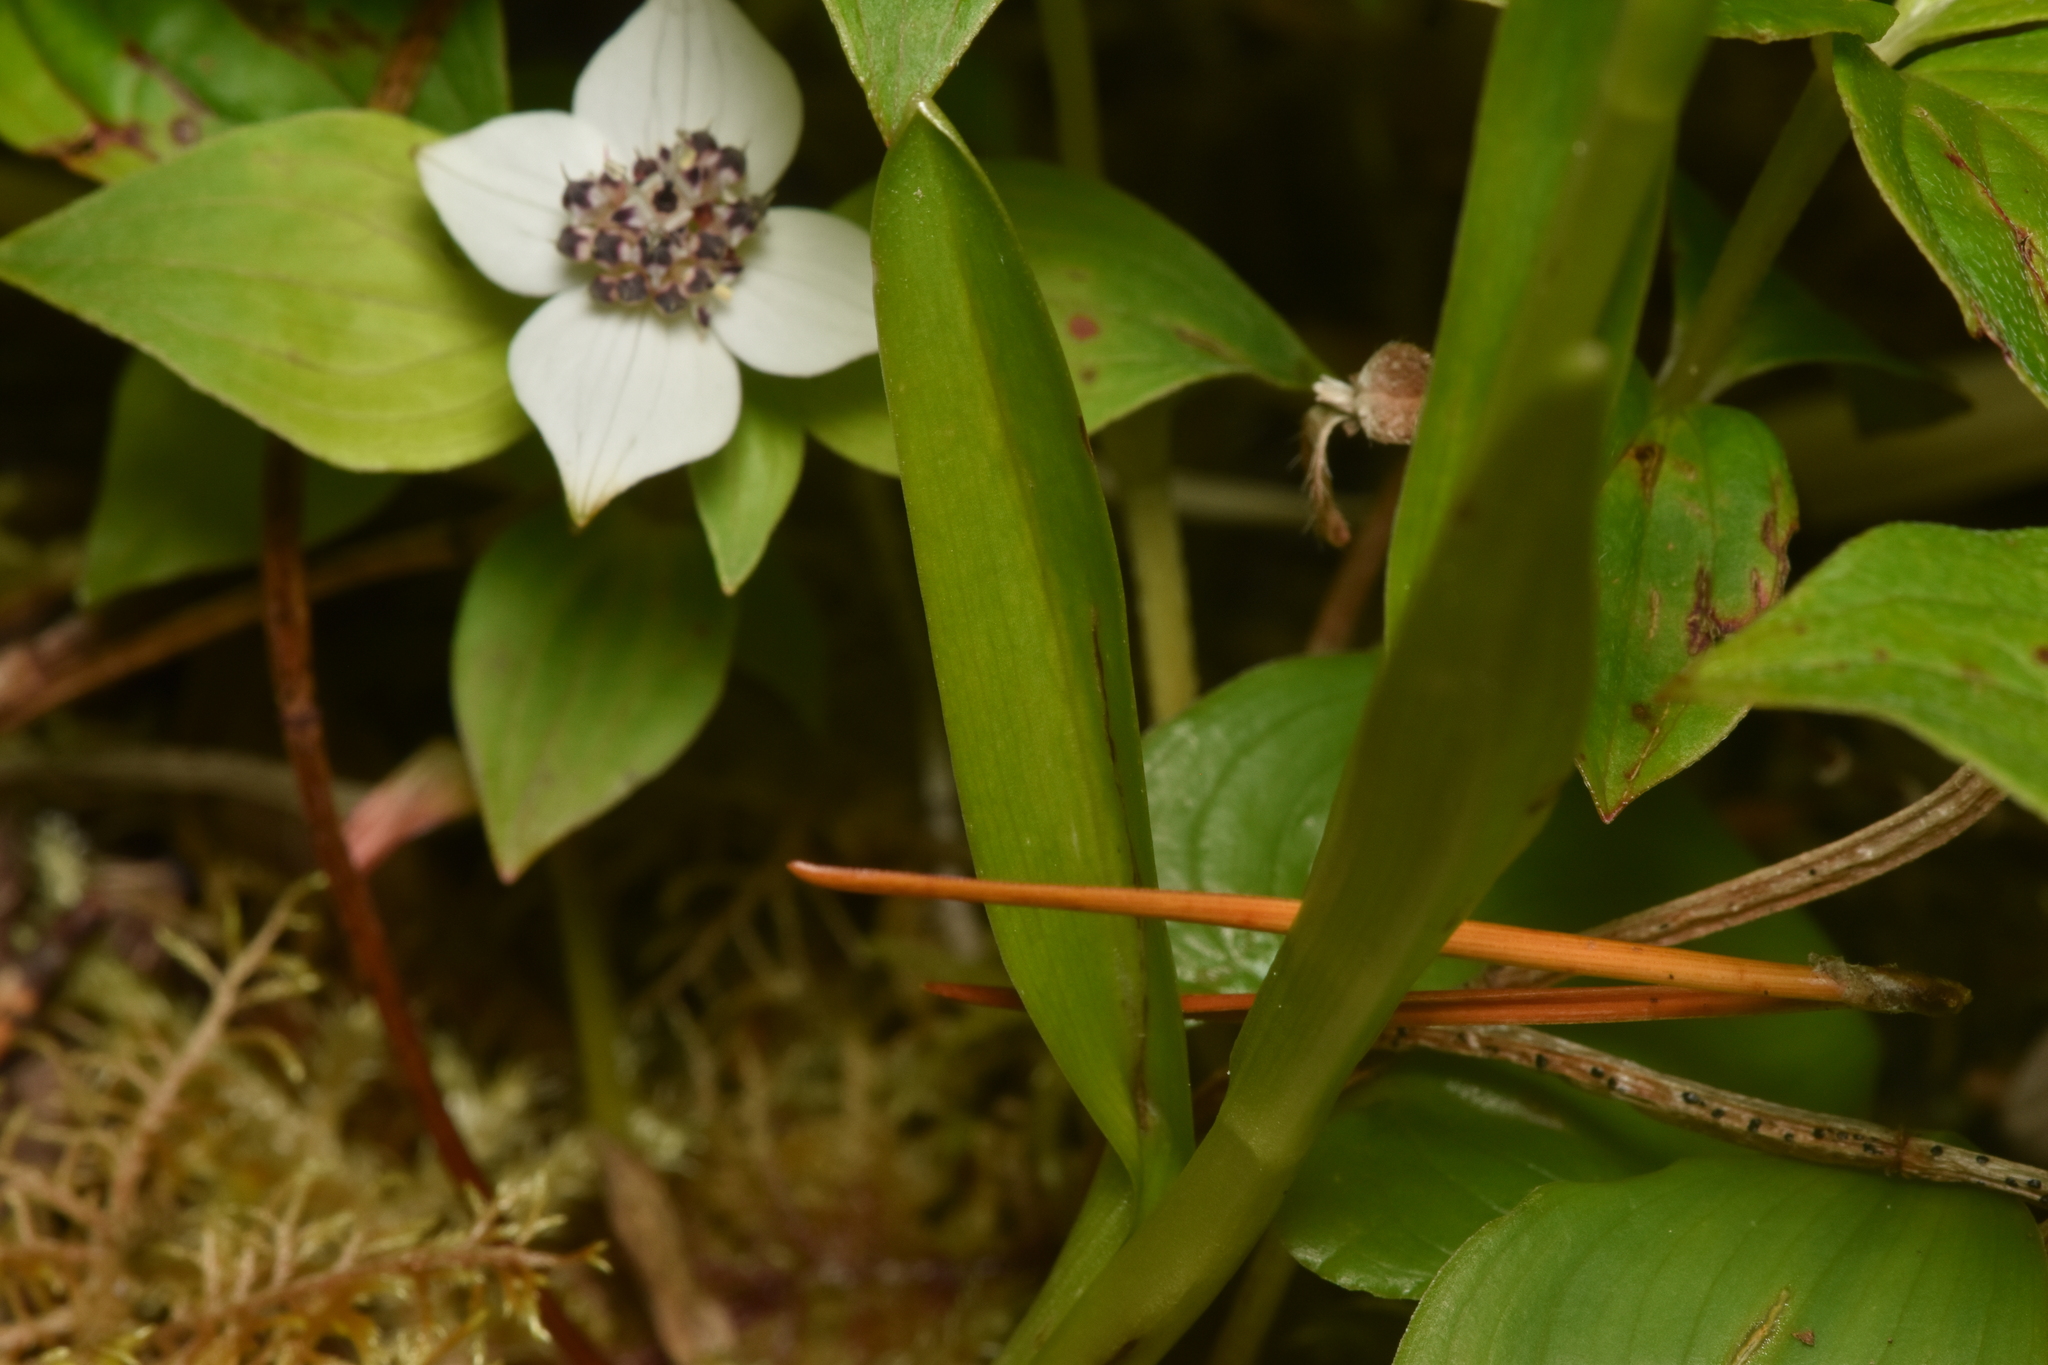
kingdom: Plantae
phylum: Tracheophyta
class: Liliopsida
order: Asparagales
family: Orchidaceae
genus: Platanthera
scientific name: Platanthera stricta
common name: Slender bog orchid
